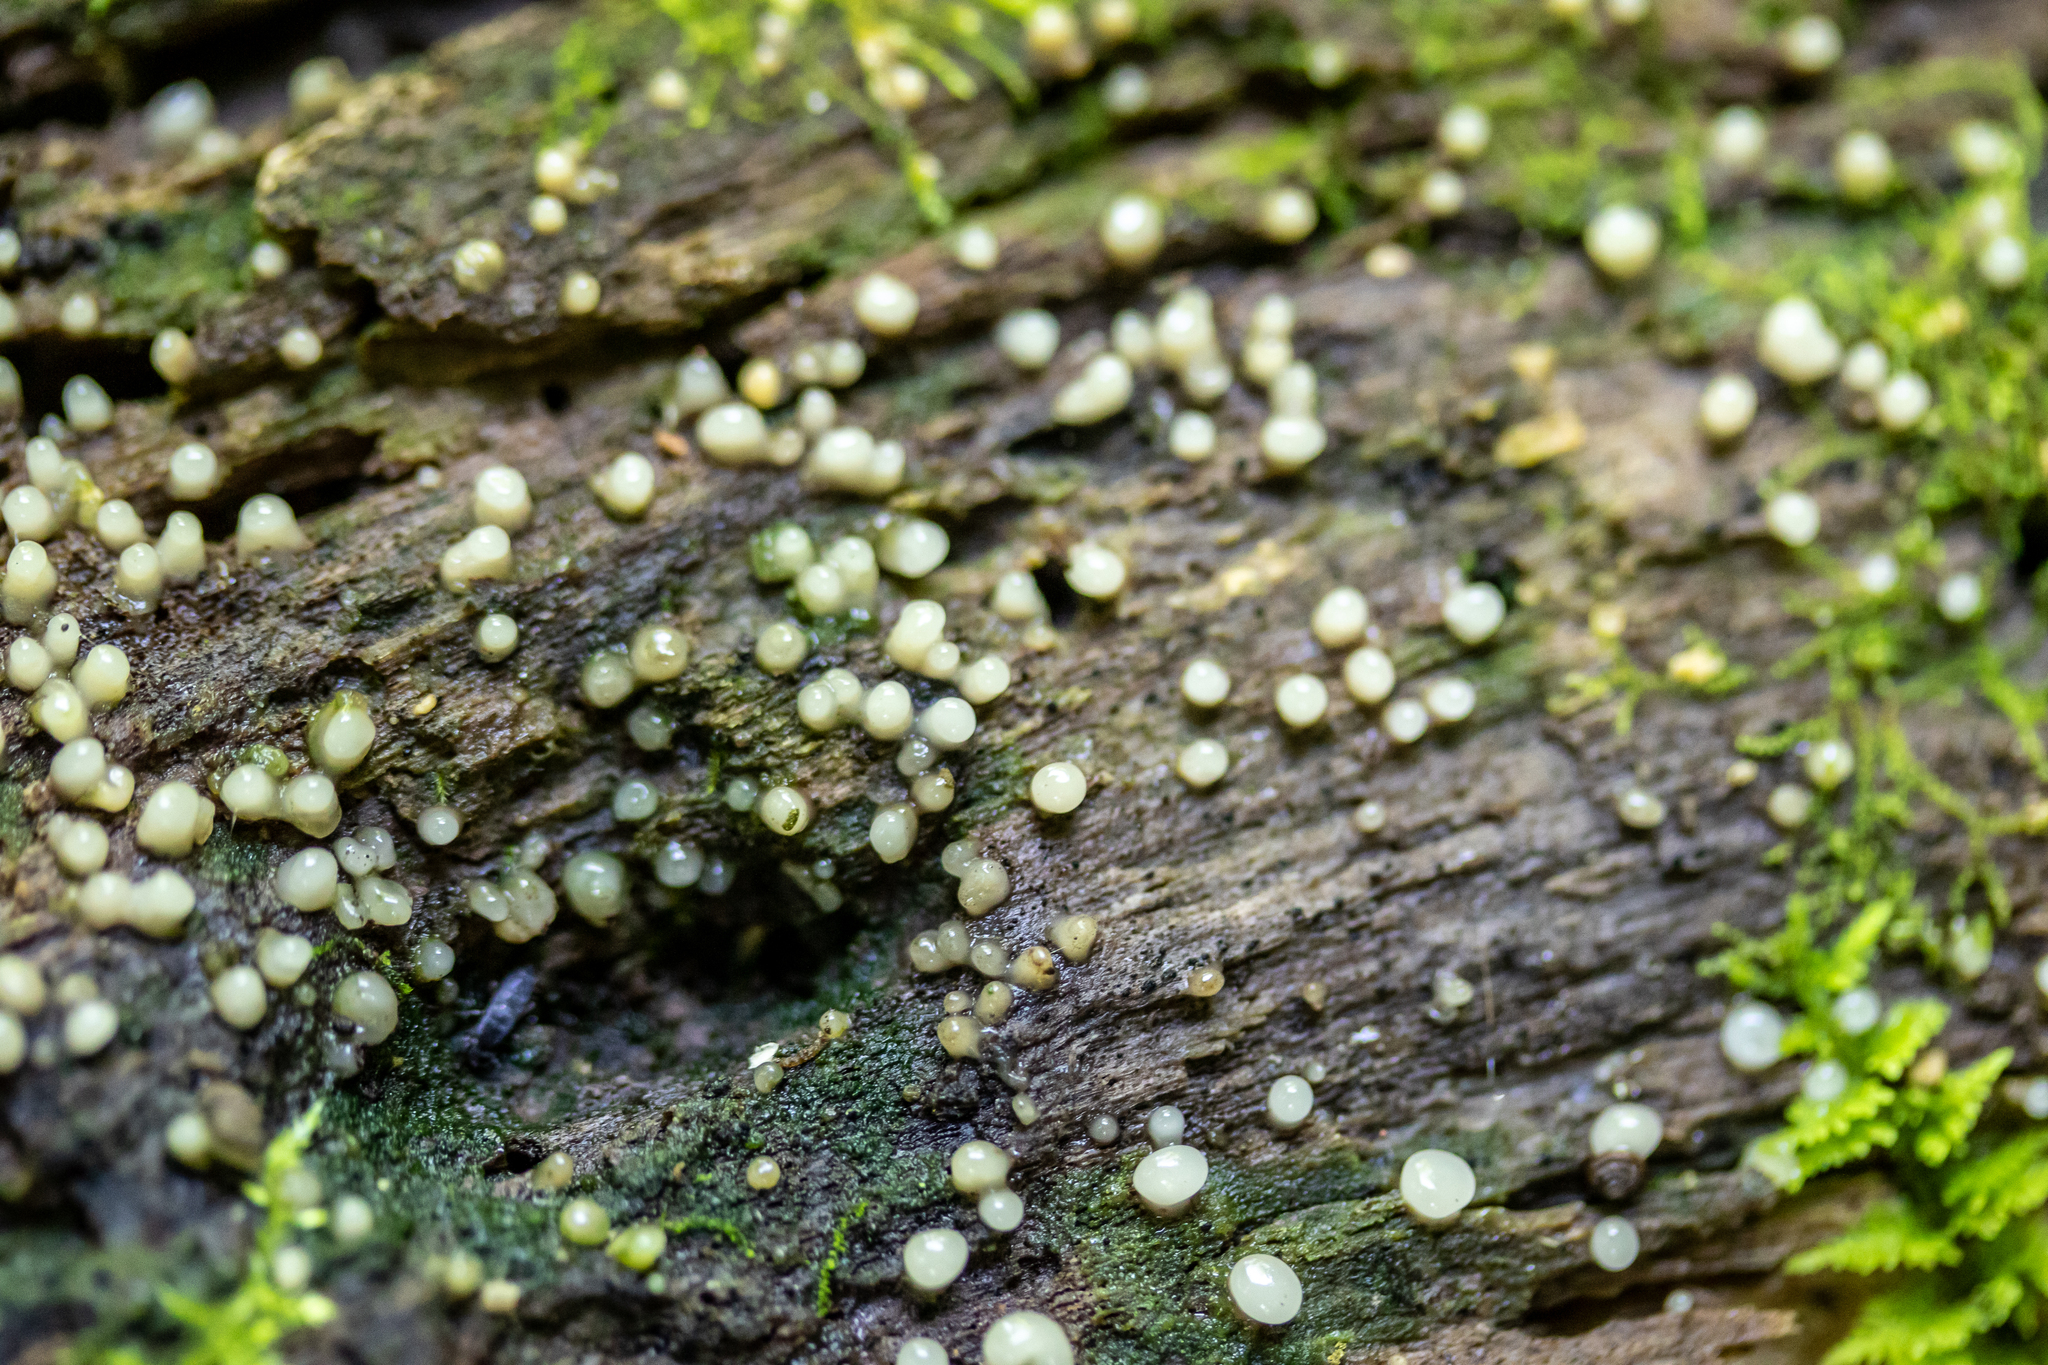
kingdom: Fungi
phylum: Basidiomycota
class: Atractiellomycetes
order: Atractiellales
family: Phleogenaceae
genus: Helicogloea
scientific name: Helicogloea compressa
